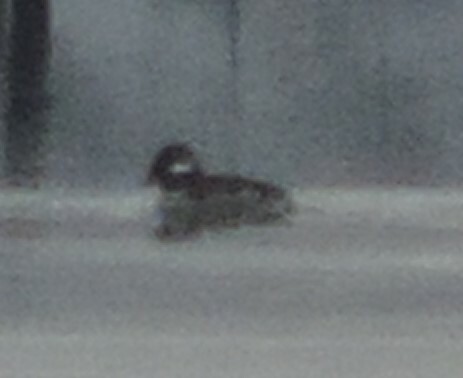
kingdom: Animalia
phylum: Chordata
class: Aves
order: Anseriformes
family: Anatidae
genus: Bucephala
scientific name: Bucephala albeola
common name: Bufflehead
